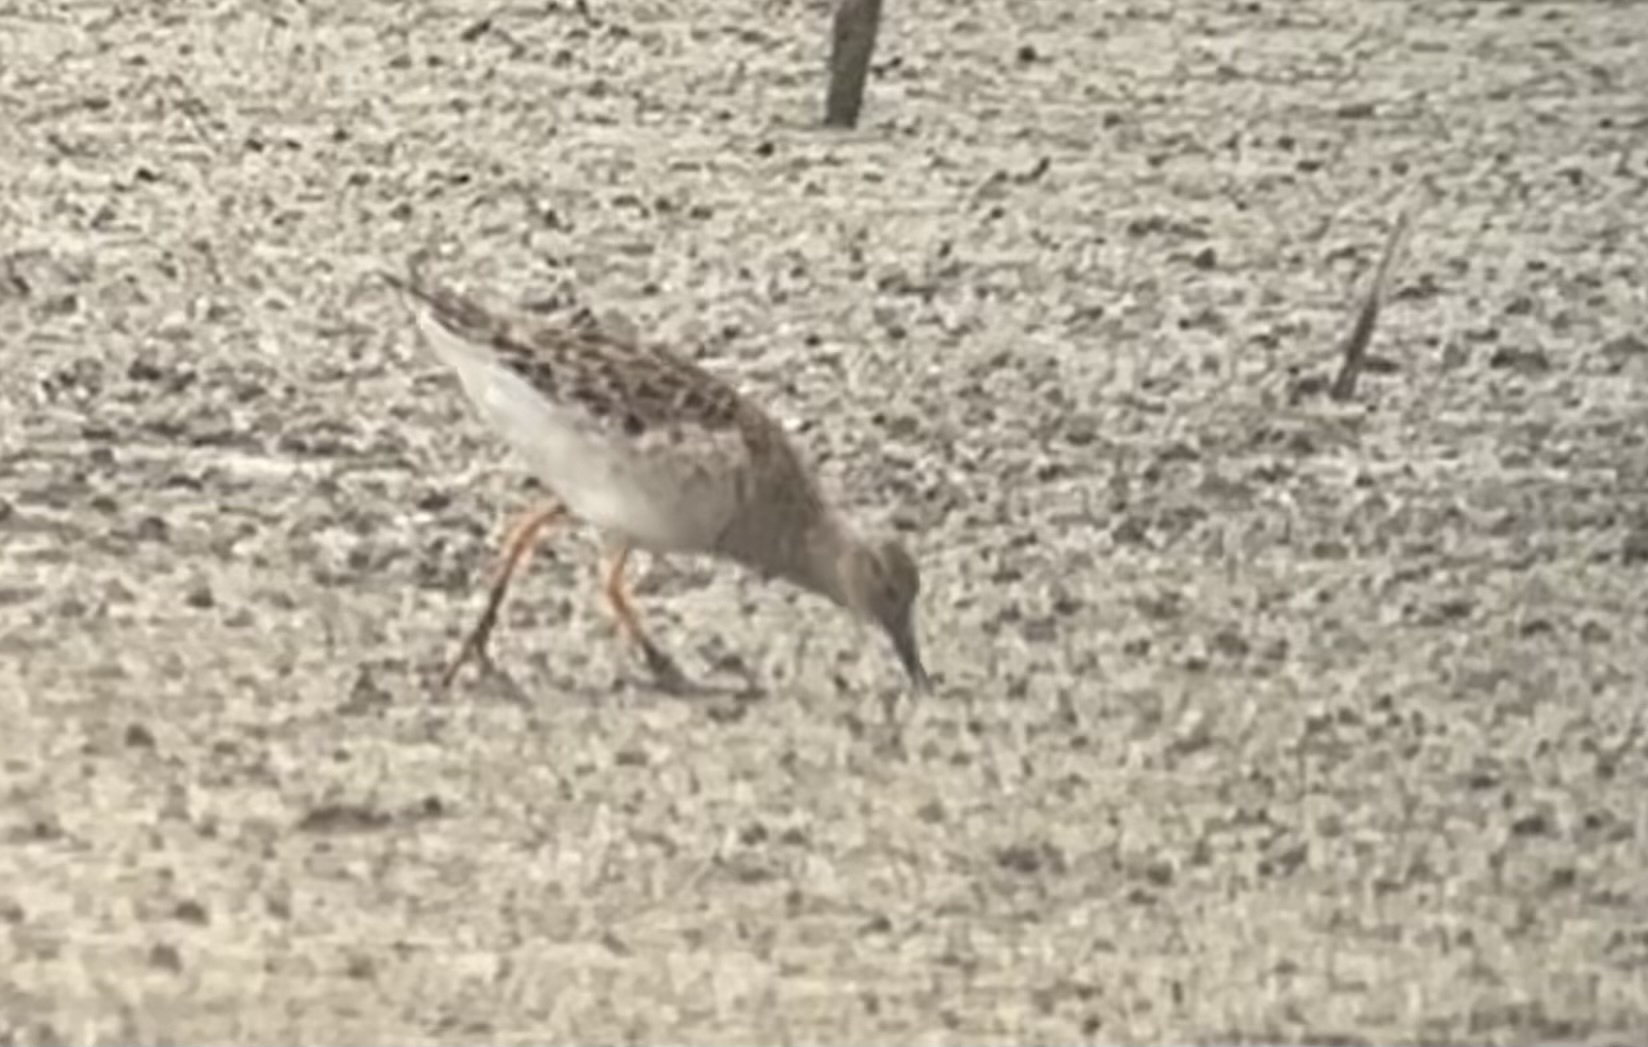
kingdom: Animalia
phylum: Chordata
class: Aves
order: Charadriiformes
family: Scolopacidae
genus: Calidris
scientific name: Calidris pugnax
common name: Ruff
